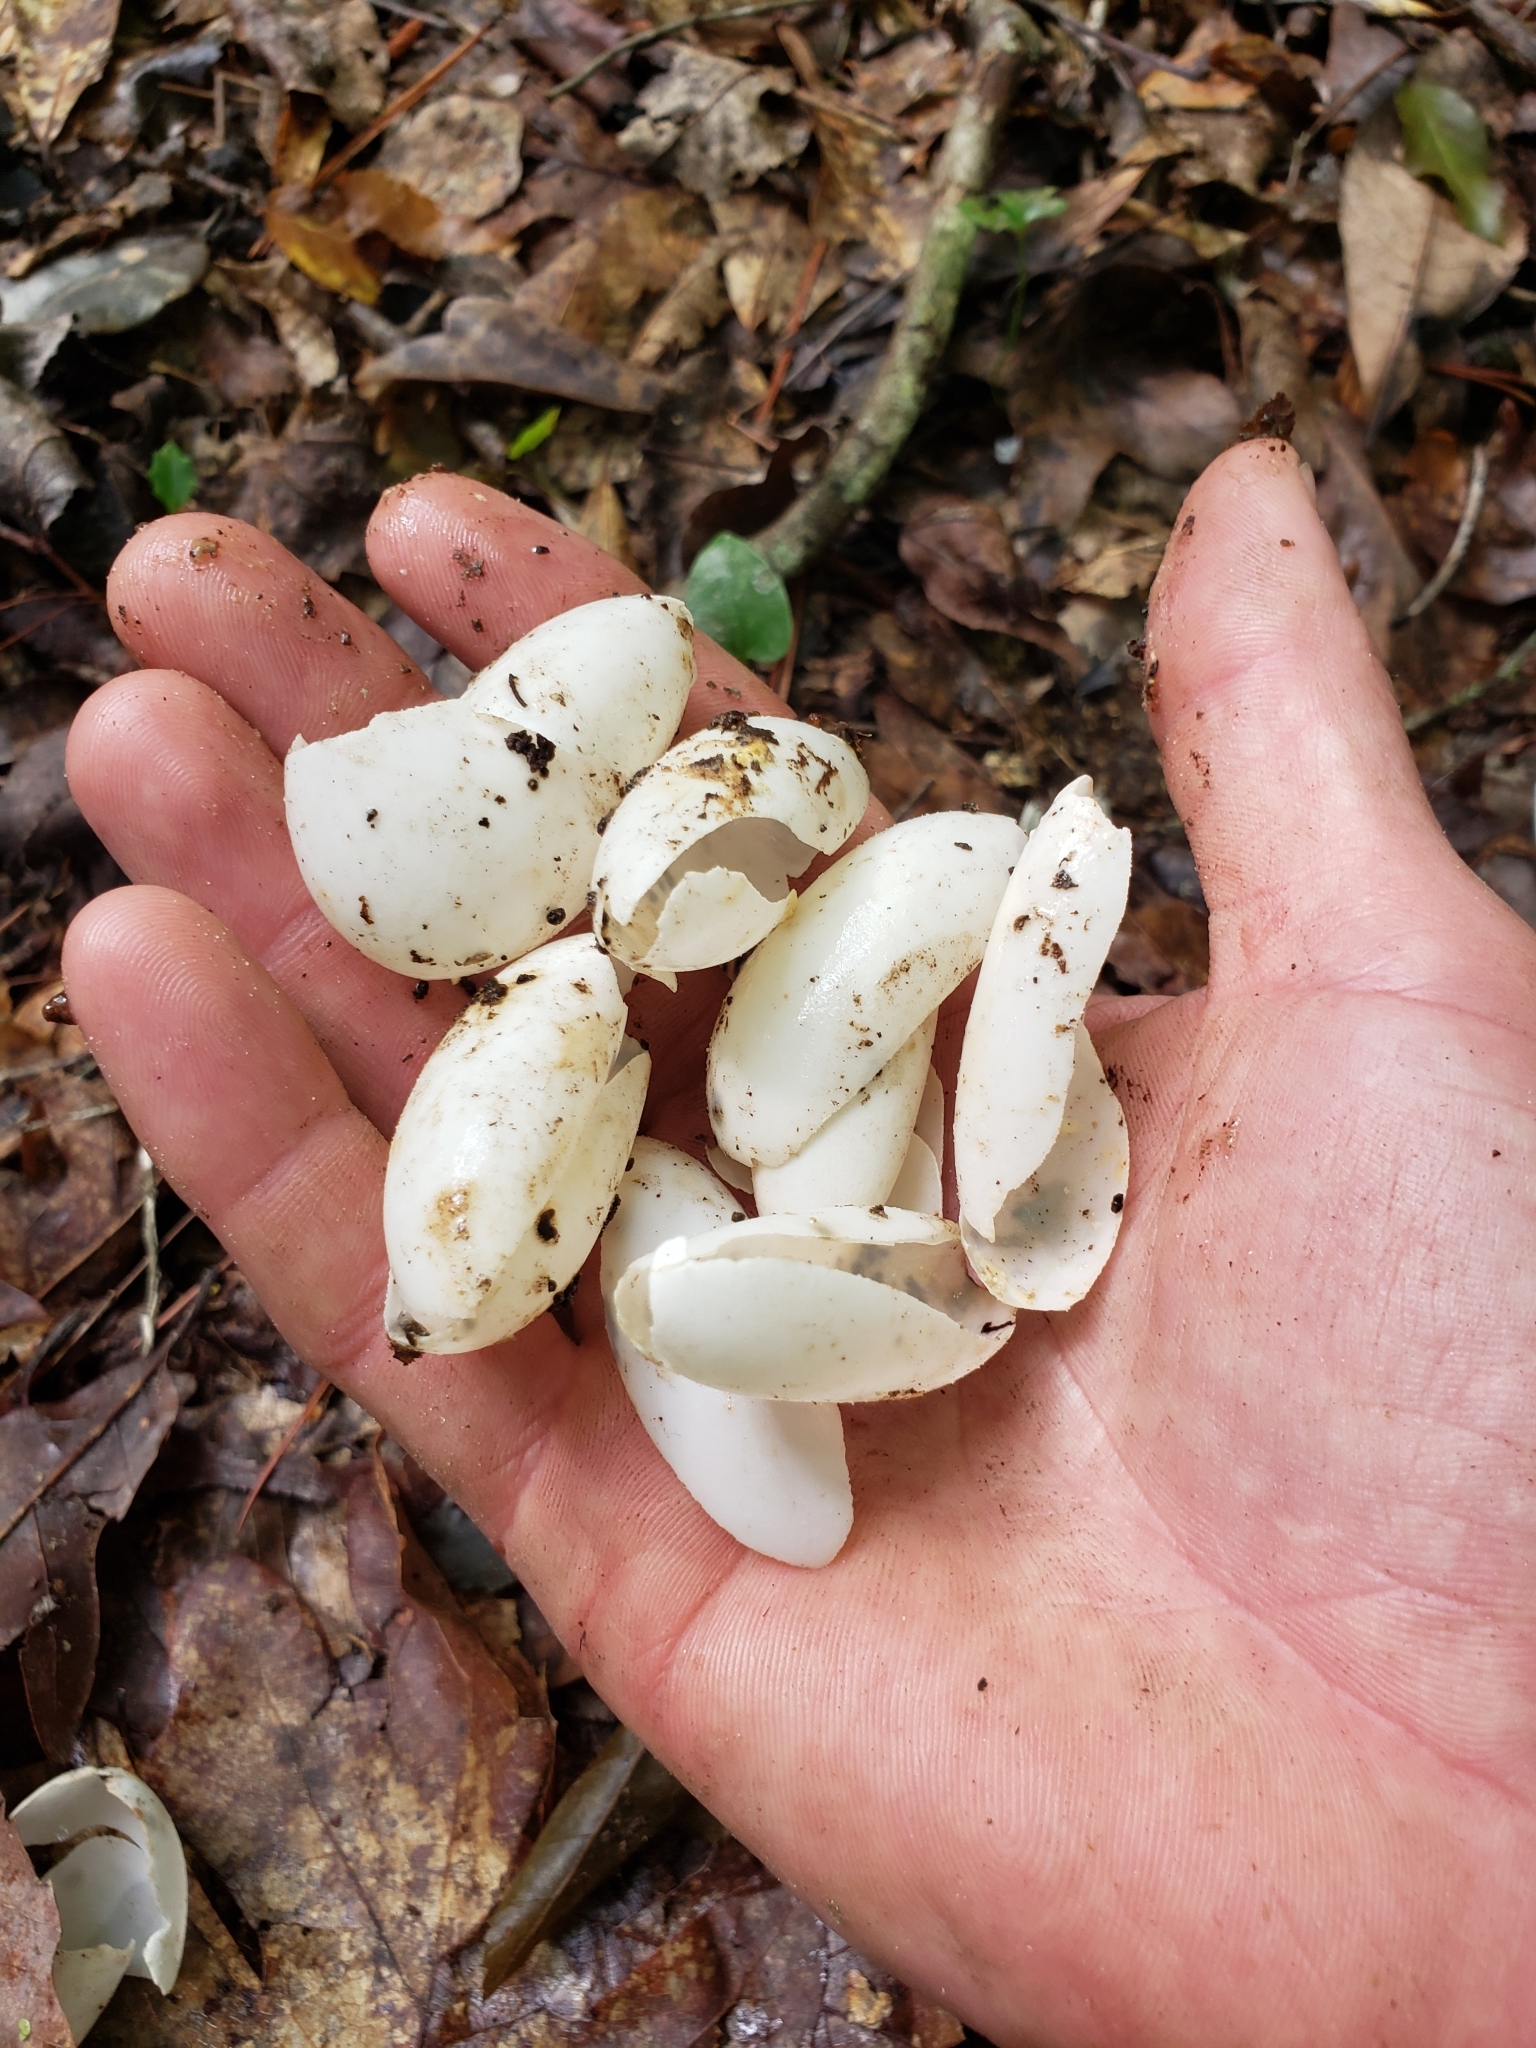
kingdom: Animalia
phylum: Chordata
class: Crocodylia
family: Alligatoridae
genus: Alligator
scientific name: Alligator mississippiensis
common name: American alligator
